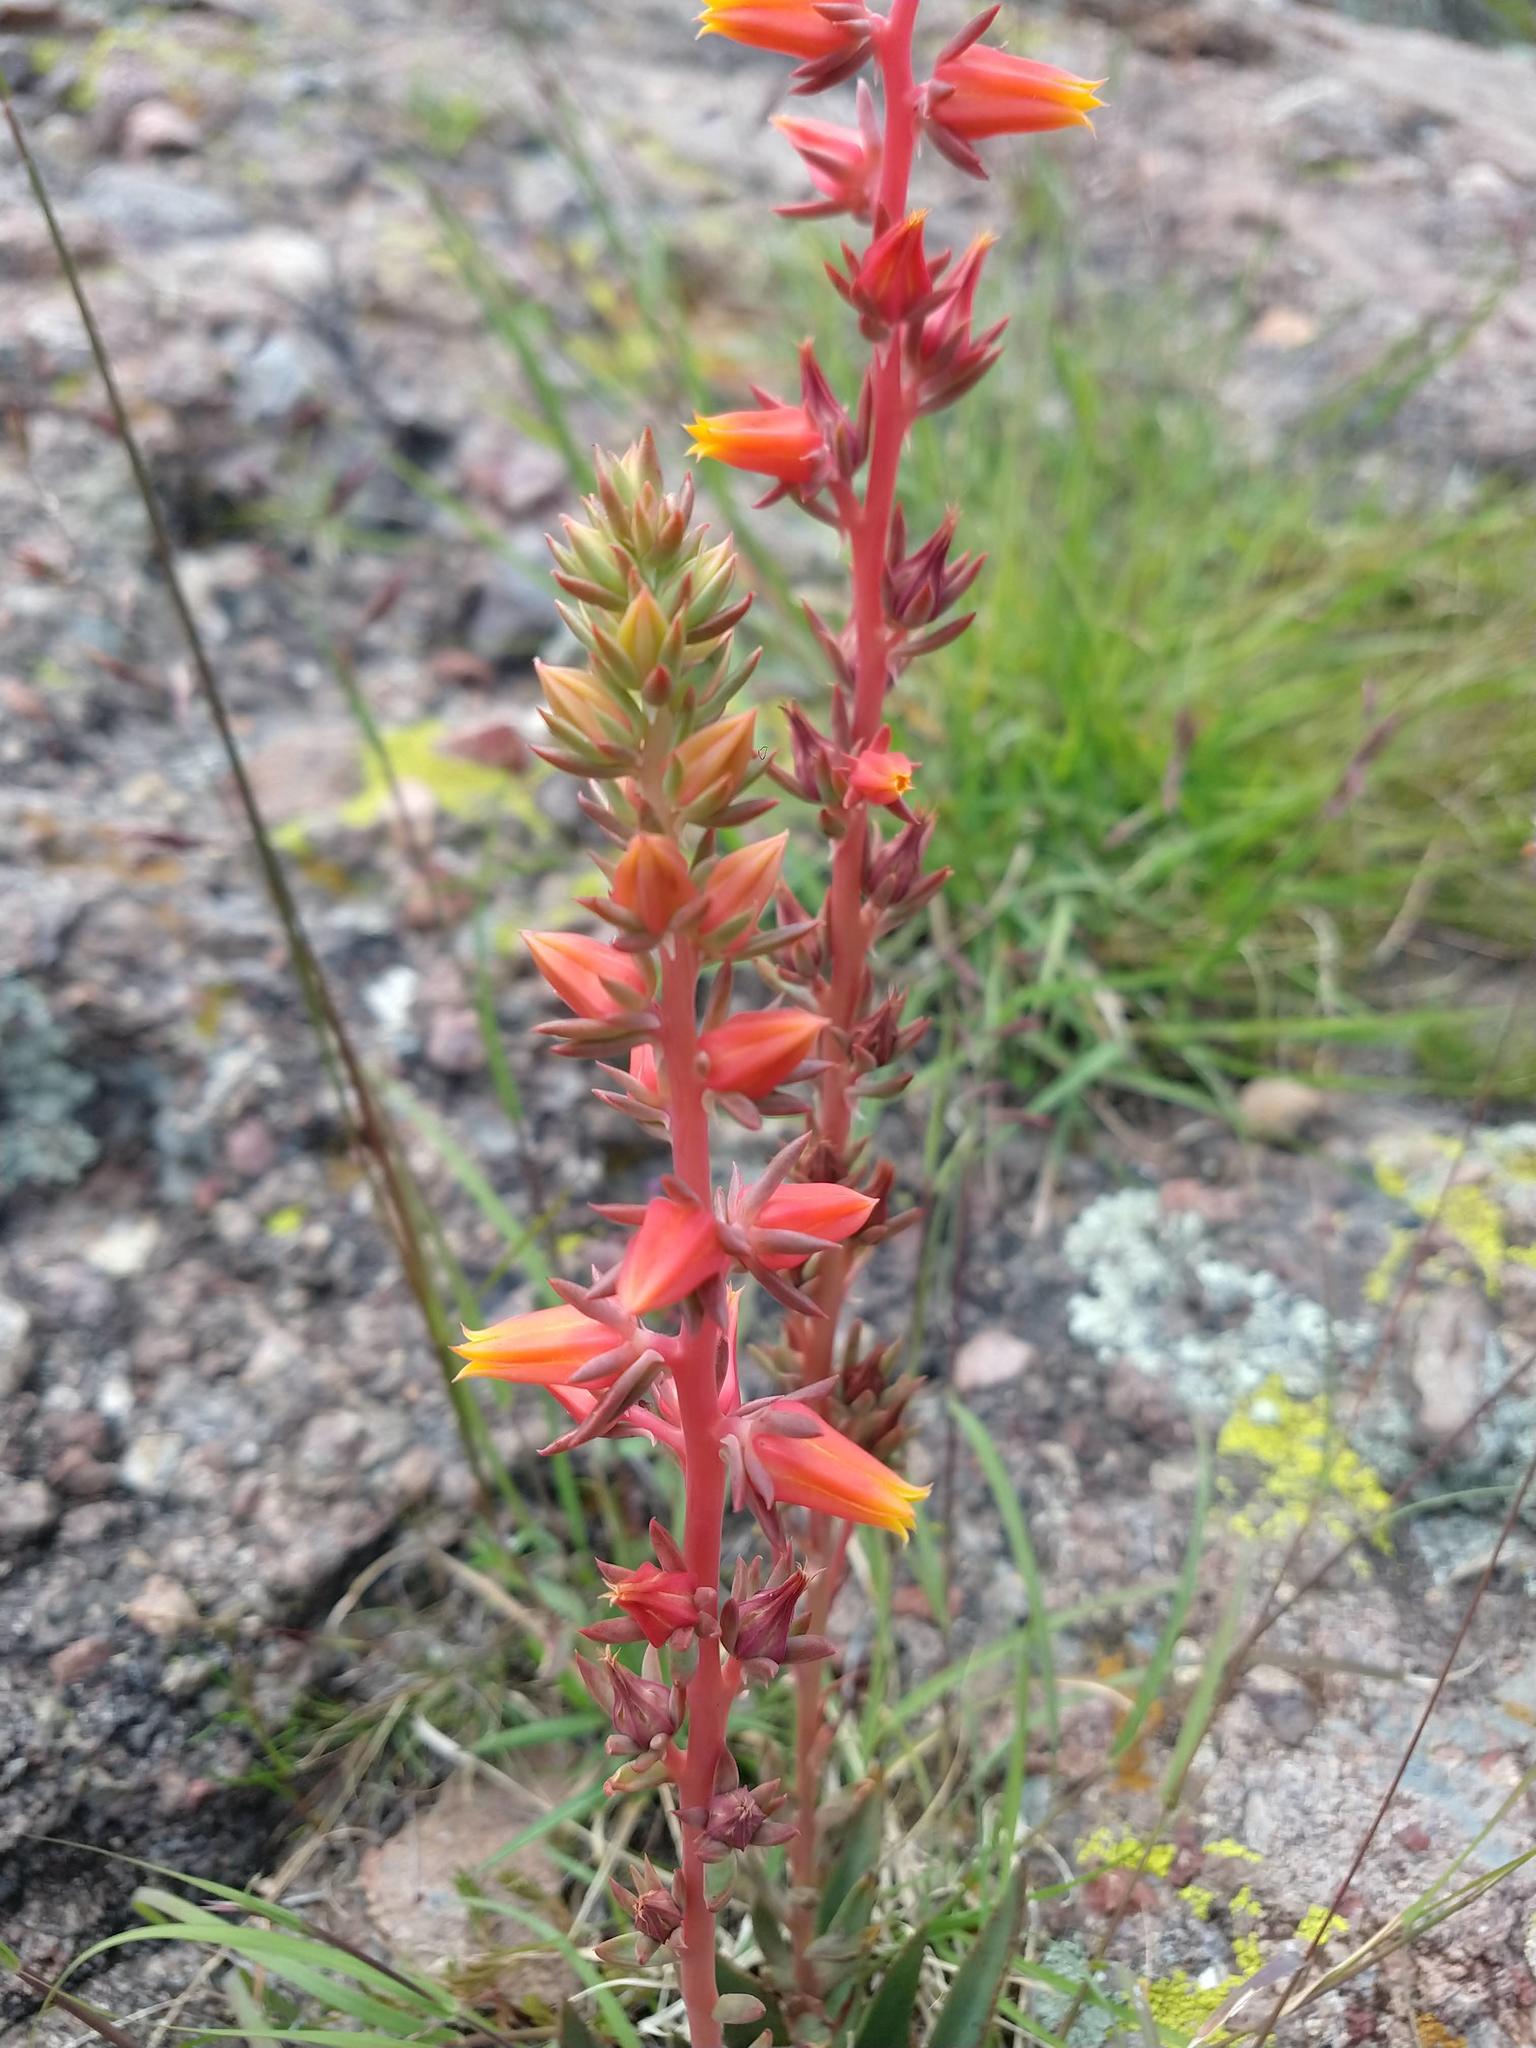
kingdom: Plantae
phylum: Tracheophyta
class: Magnoliopsida
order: Saxifragales
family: Crassulaceae
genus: Echeveria
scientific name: Echeveria mucronata
